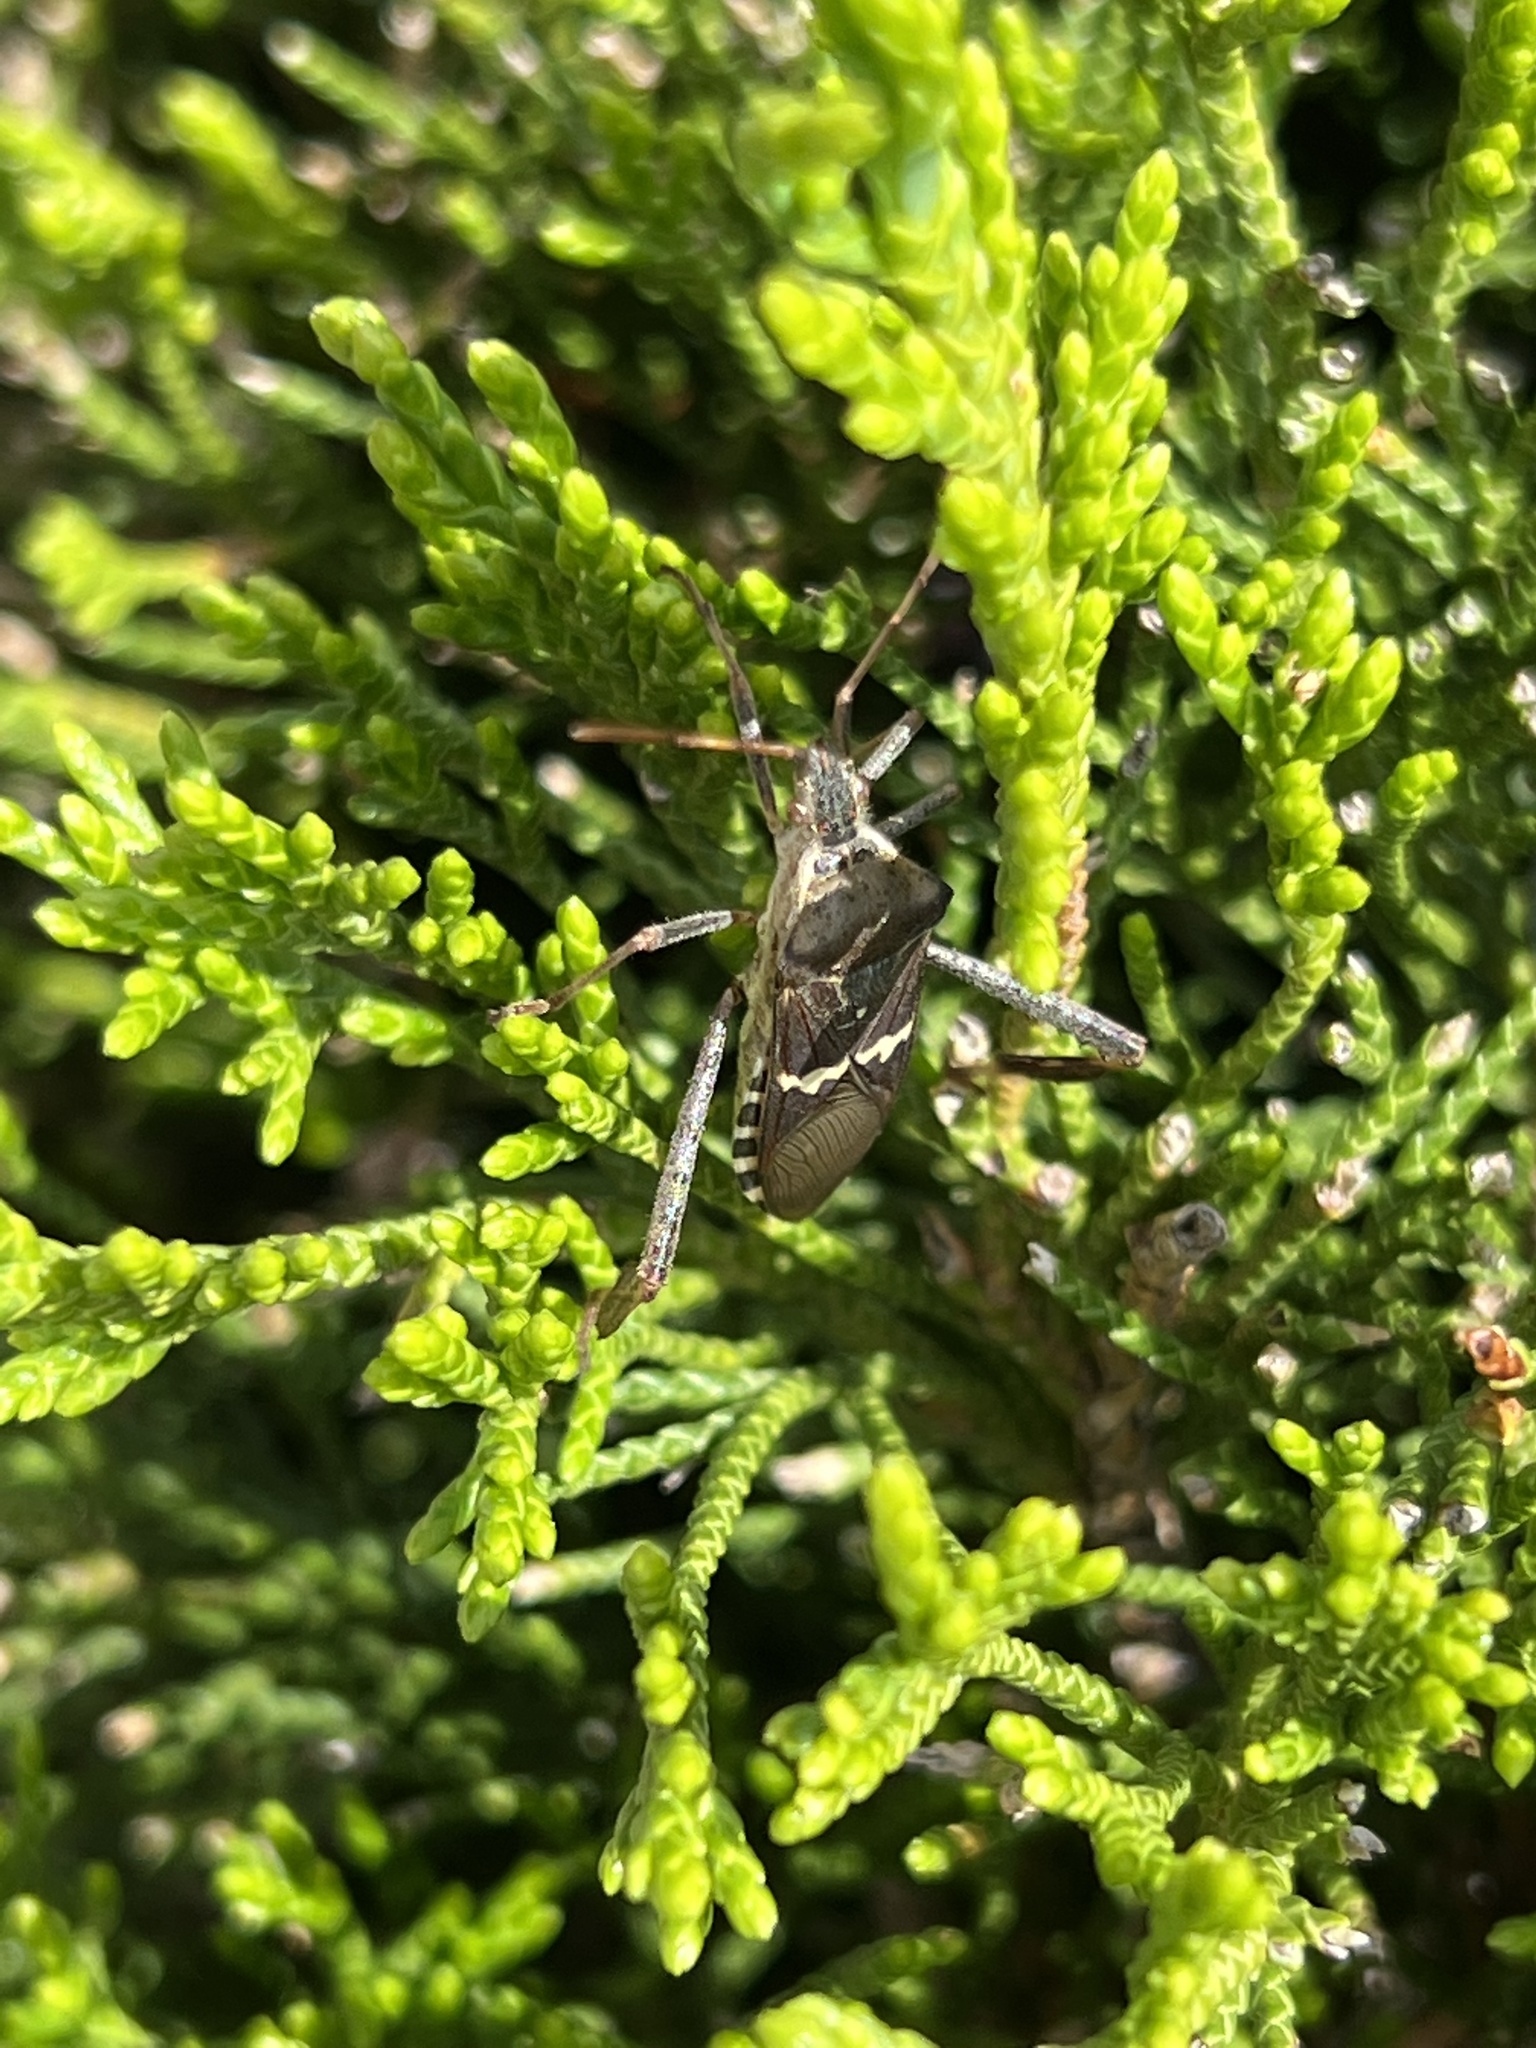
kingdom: Animalia
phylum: Arthropoda
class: Insecta
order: Hemiptera
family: Coreidae
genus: Leptoglossus
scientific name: Leptoglossus clypealis
